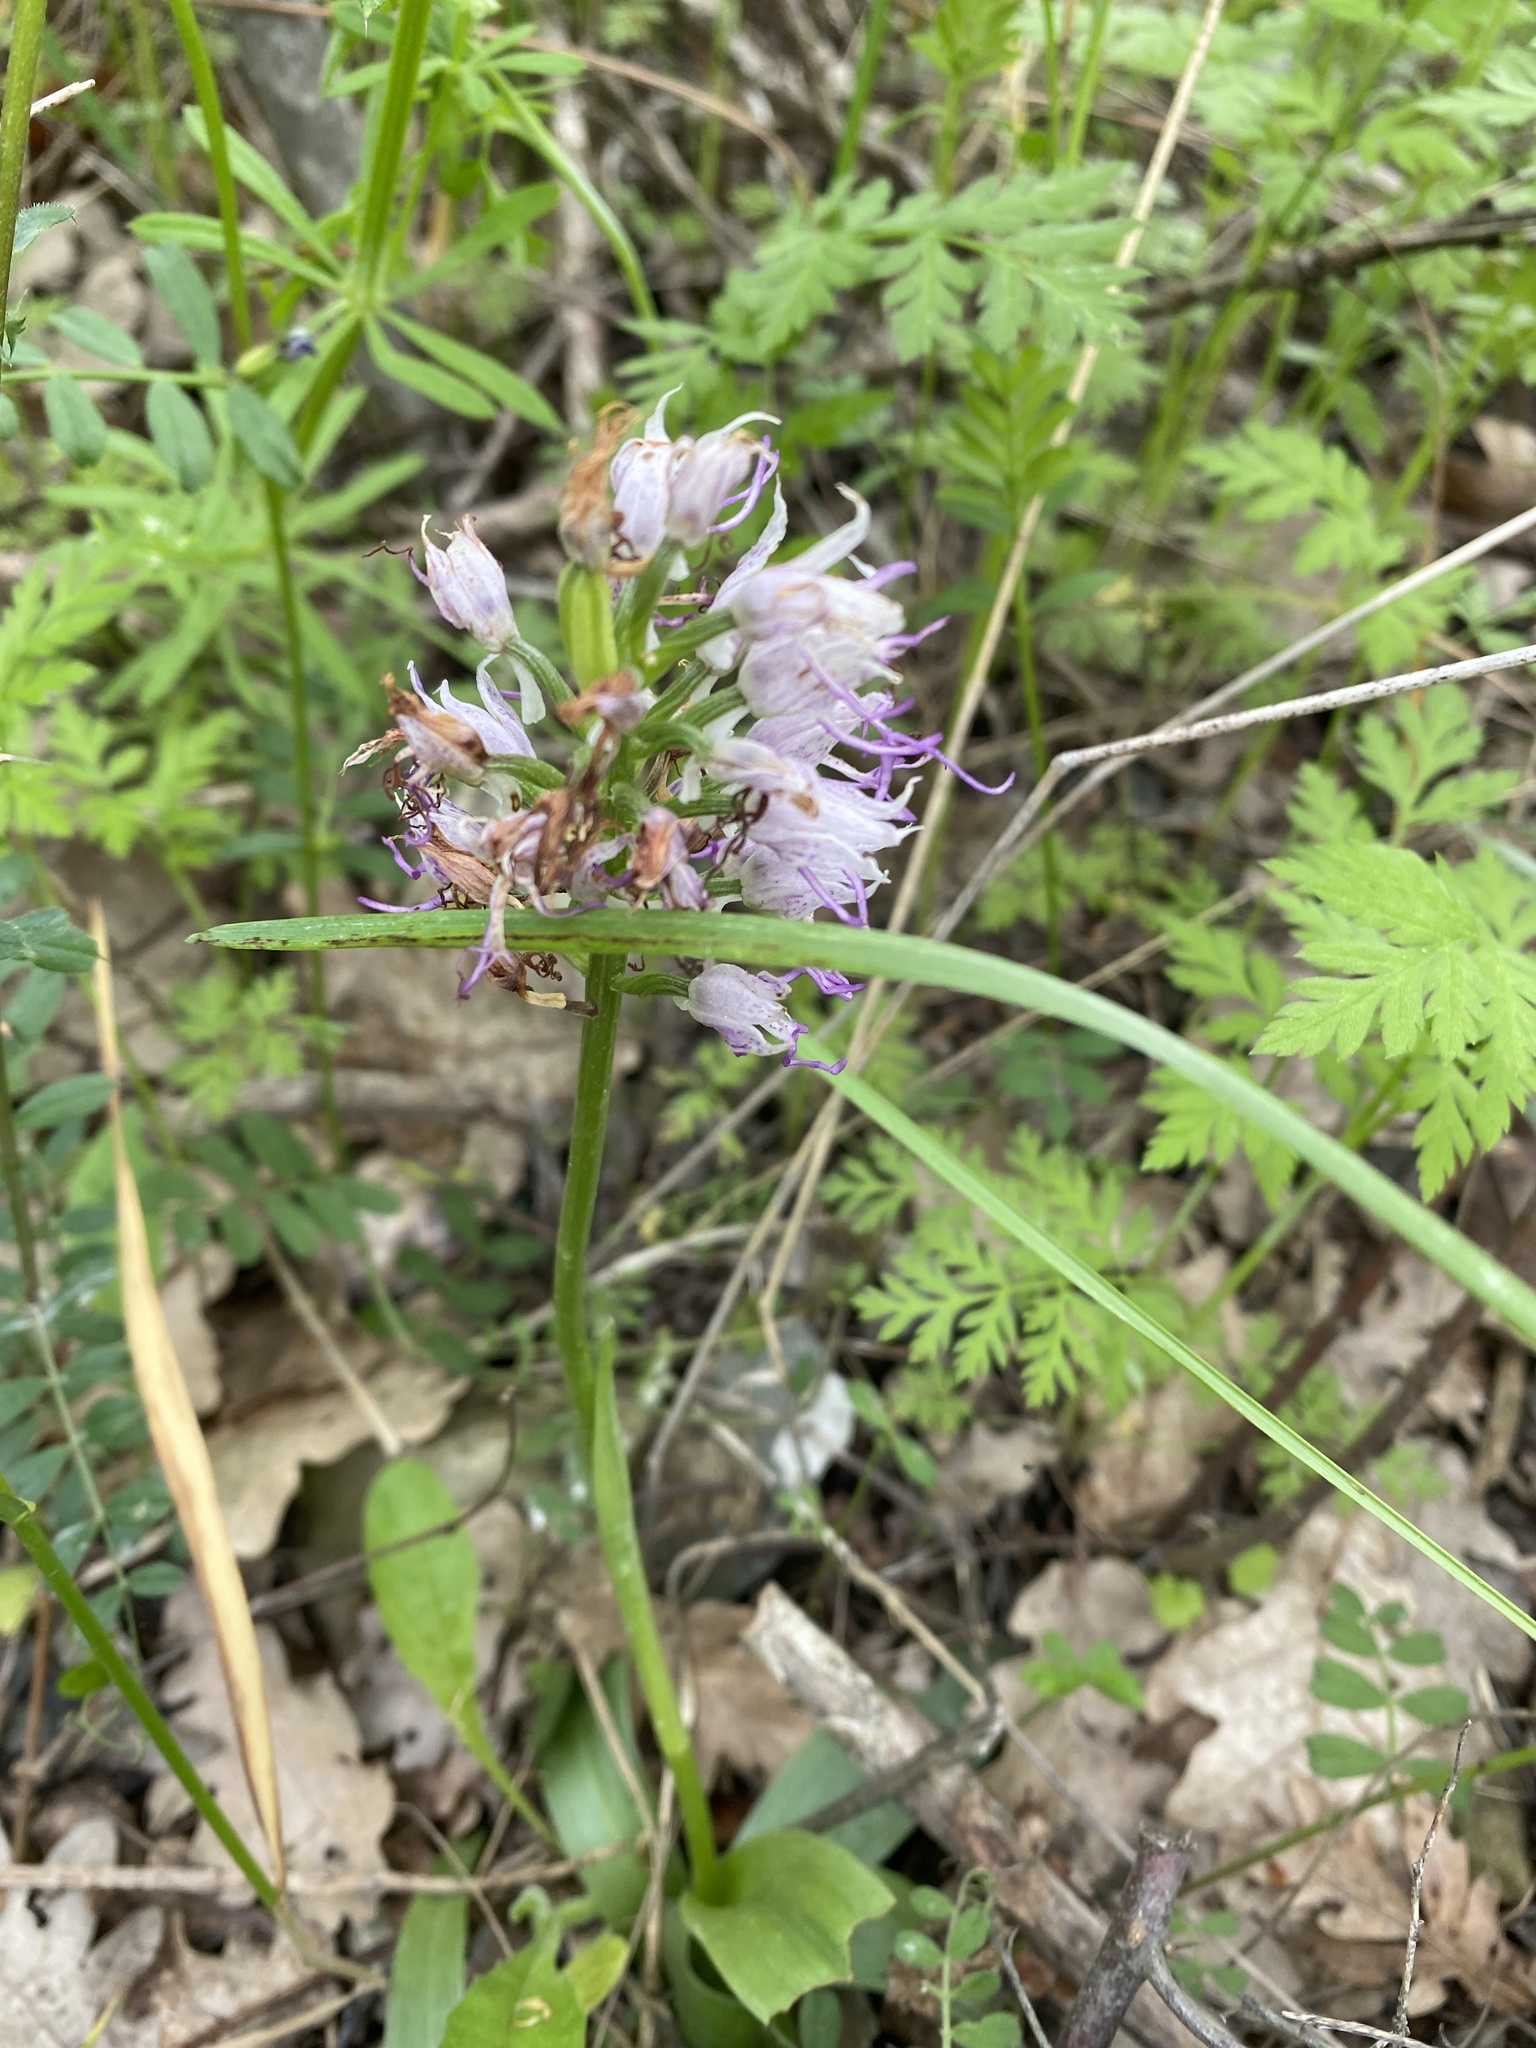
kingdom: Plantae
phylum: Tracheophyta
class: Liliopsida
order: Asparagales
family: Orchidaceae
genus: Orchis
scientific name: Orchis simia
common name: Monkey orchid
